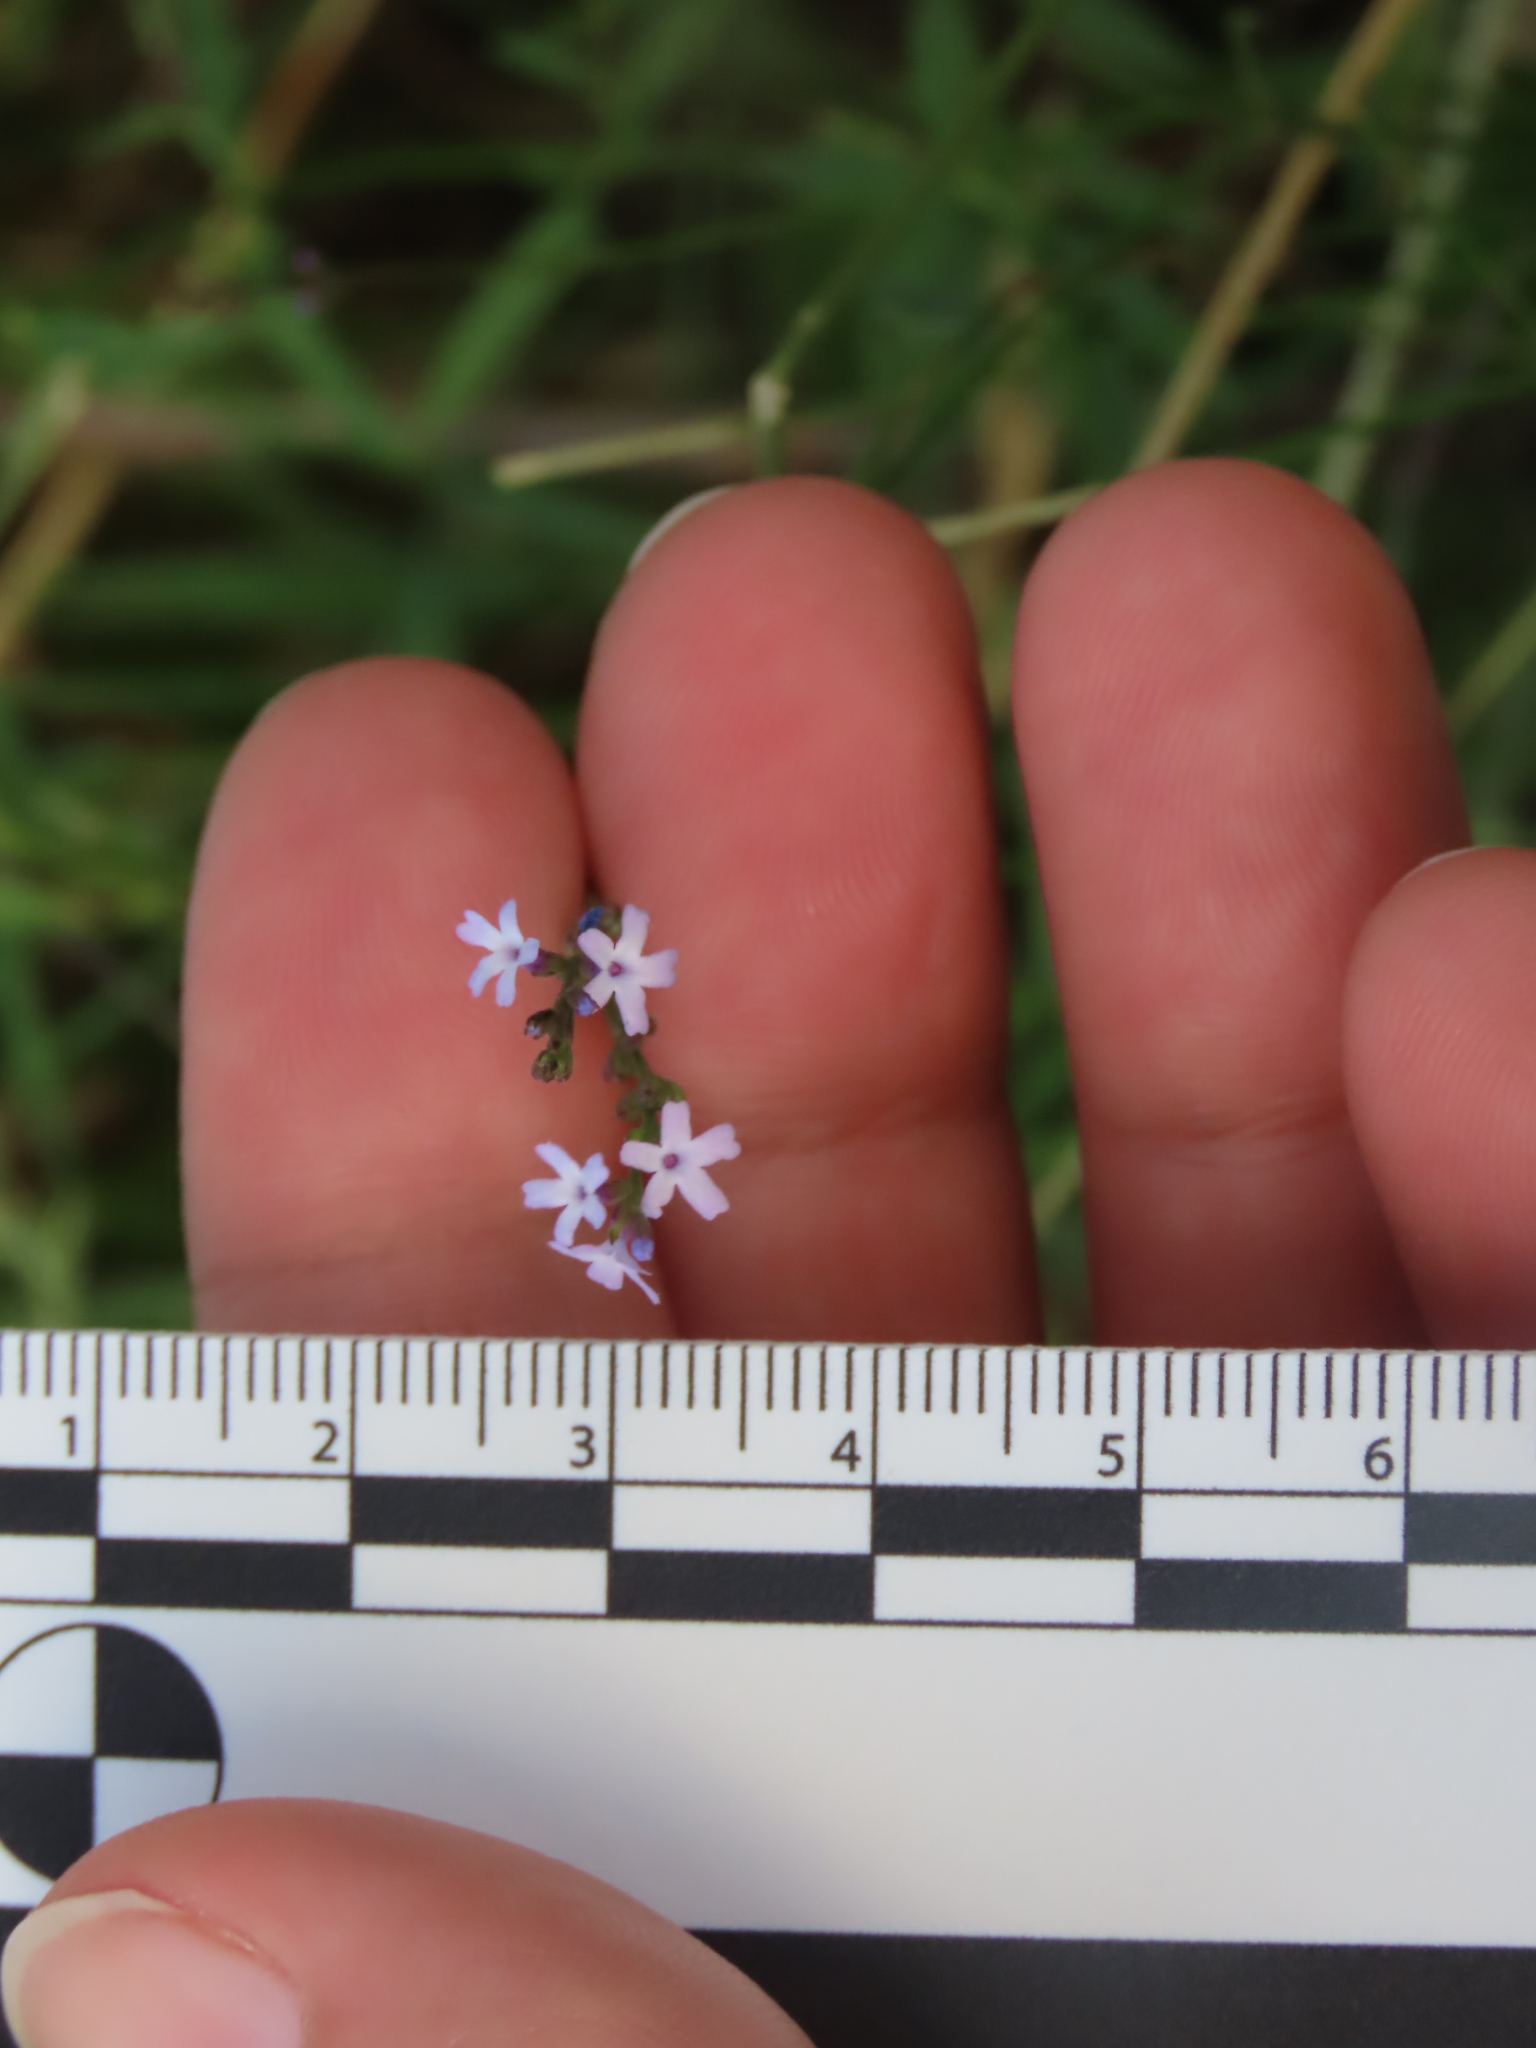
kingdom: Plantae
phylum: Tracheophyta
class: Magnoliopsida
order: Lamiales
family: Verbenaceae
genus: Verbena
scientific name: Verbena montevidensis
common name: Uruguayan vervain
